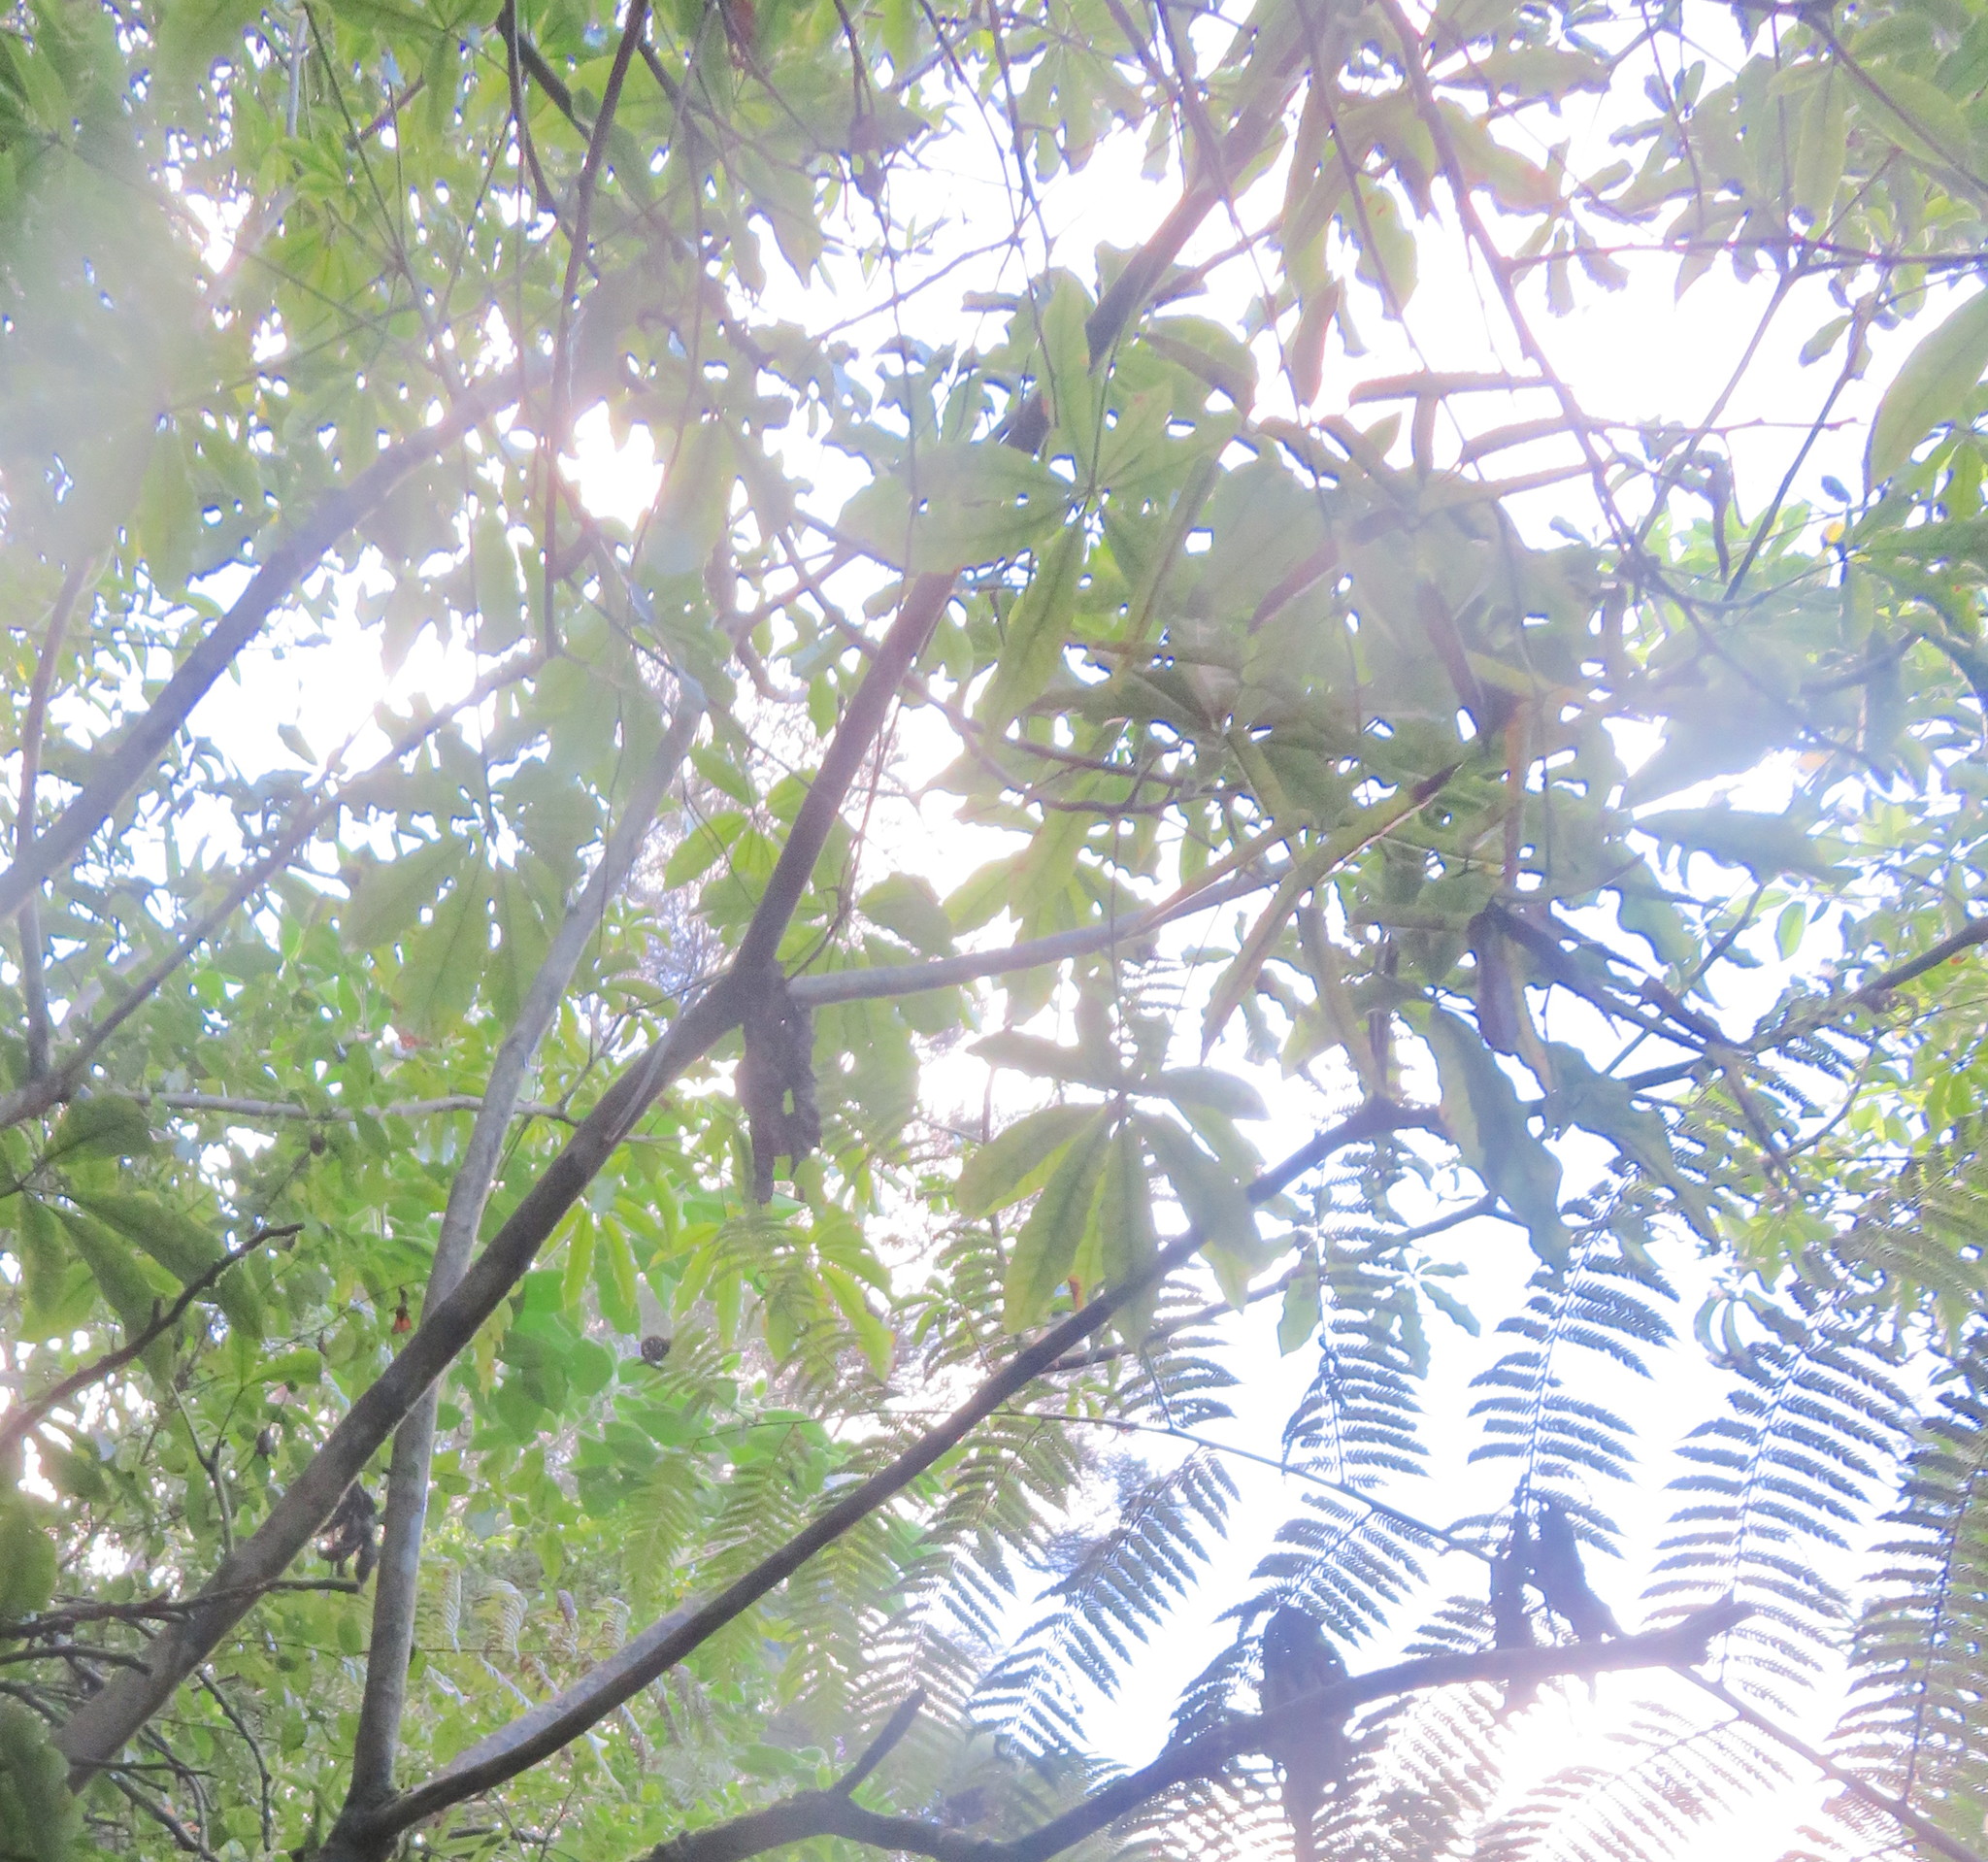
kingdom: Plantae
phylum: Tracheophyta
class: Magnoliopsida
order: Apiales
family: Araliaceae
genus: Schefflera
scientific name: Schefflera digitata
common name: Pate
